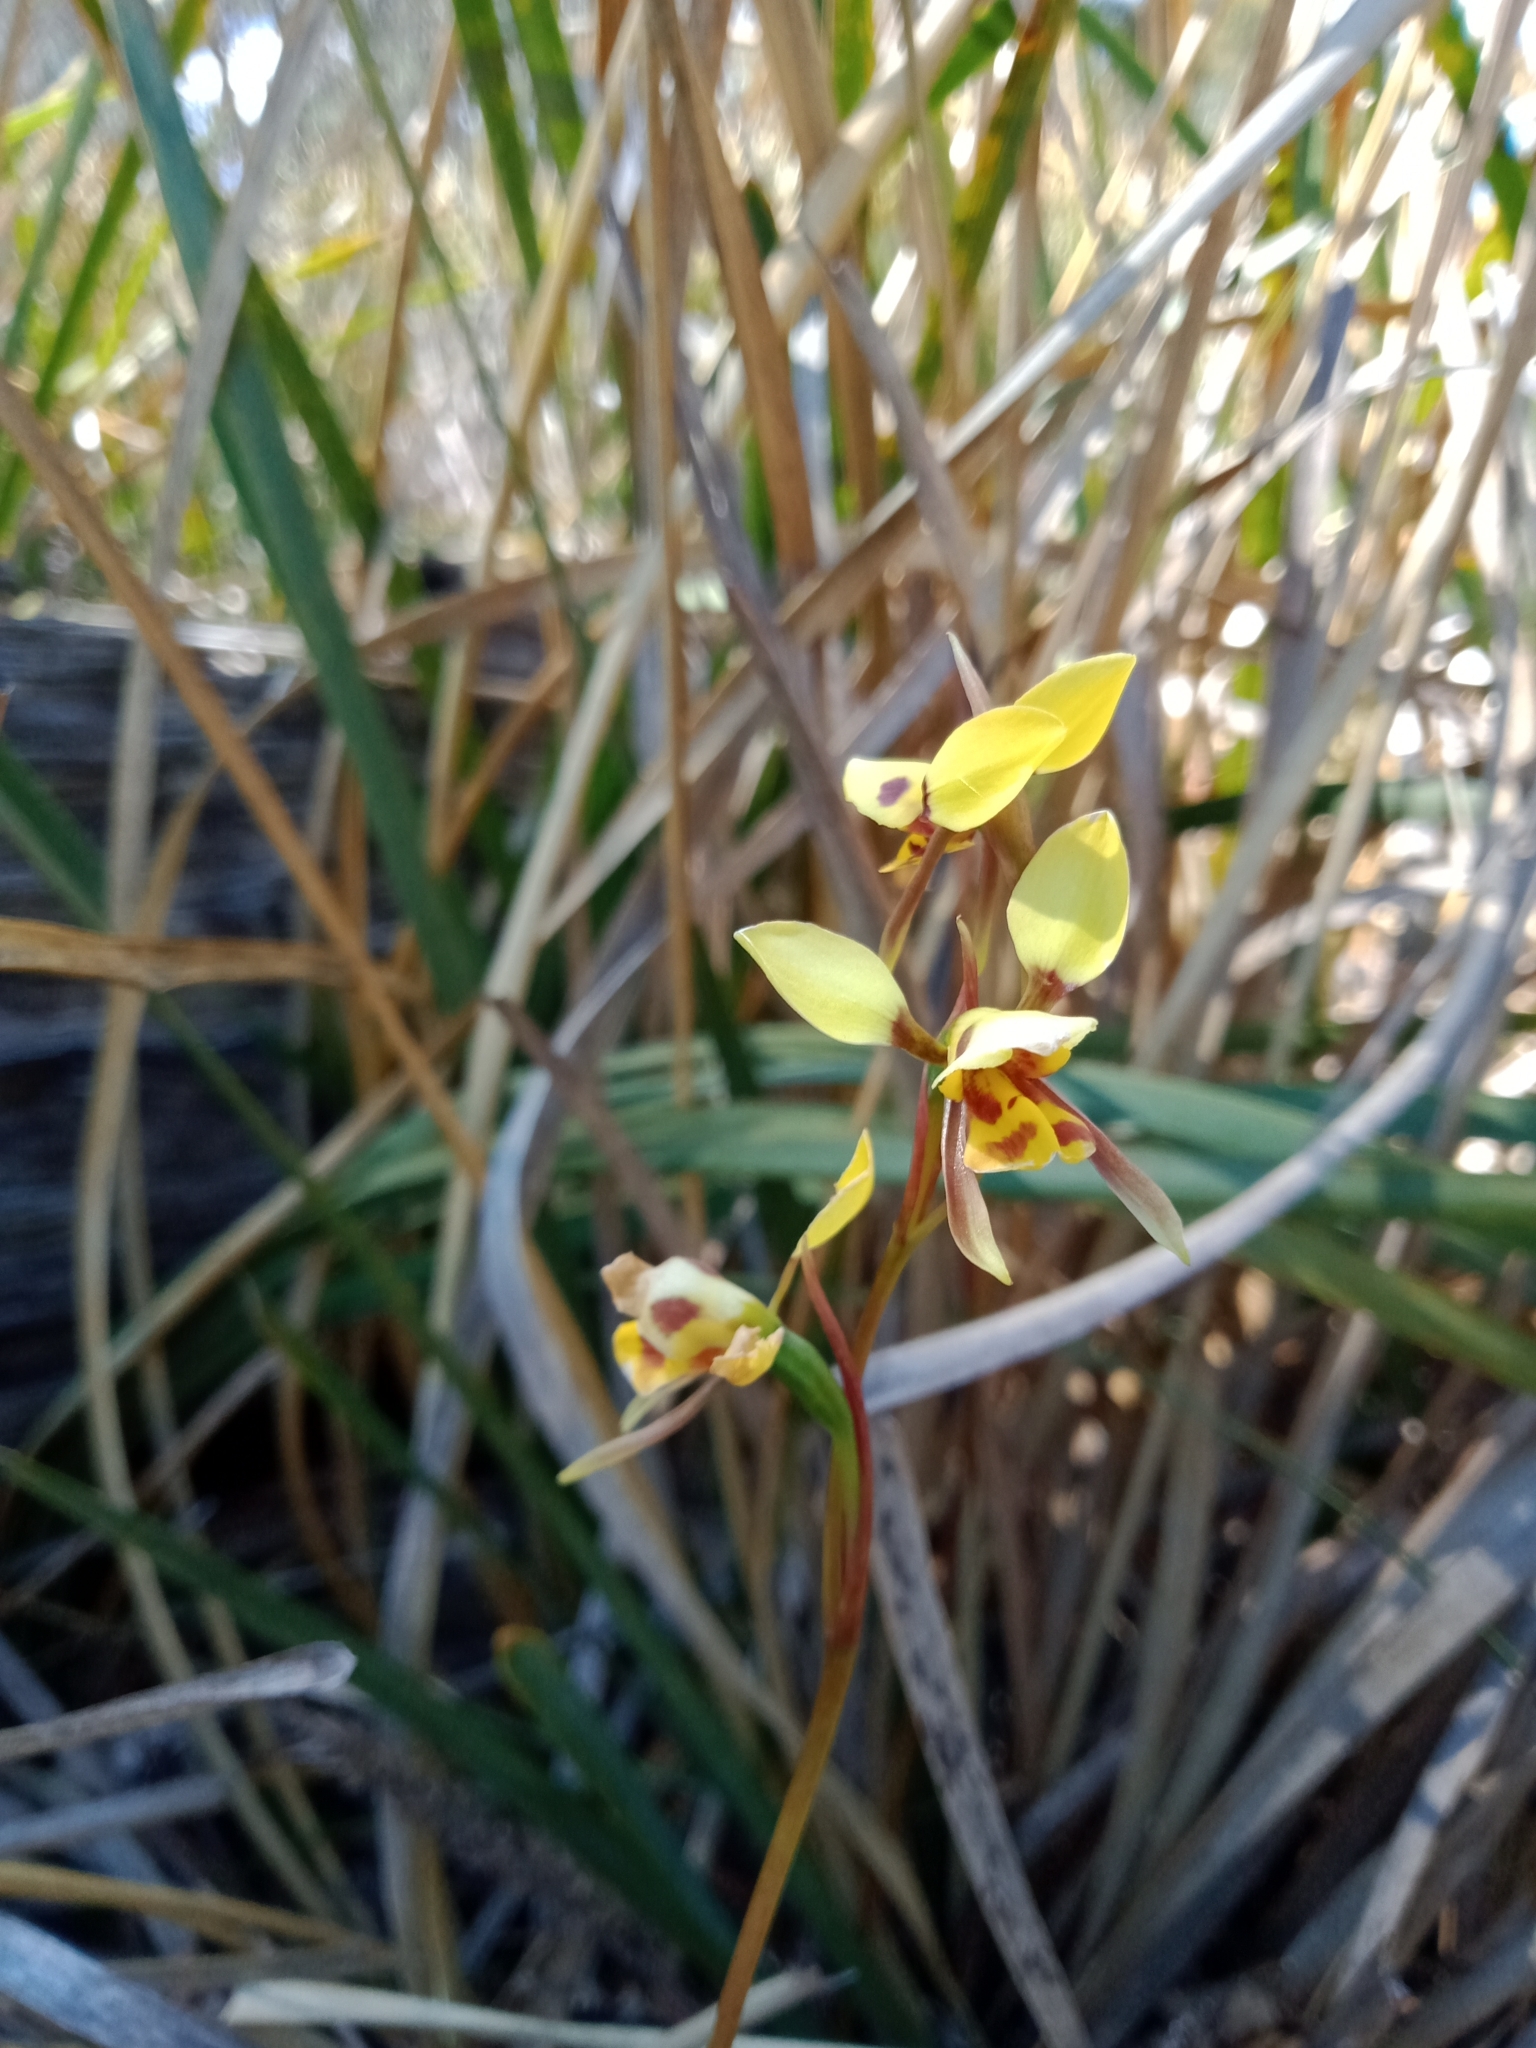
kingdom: Plantae
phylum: Tracheophyta
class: Liliopsida
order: Asparagales
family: Orchidaceae
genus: Diuris
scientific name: Diuris sulphurea
